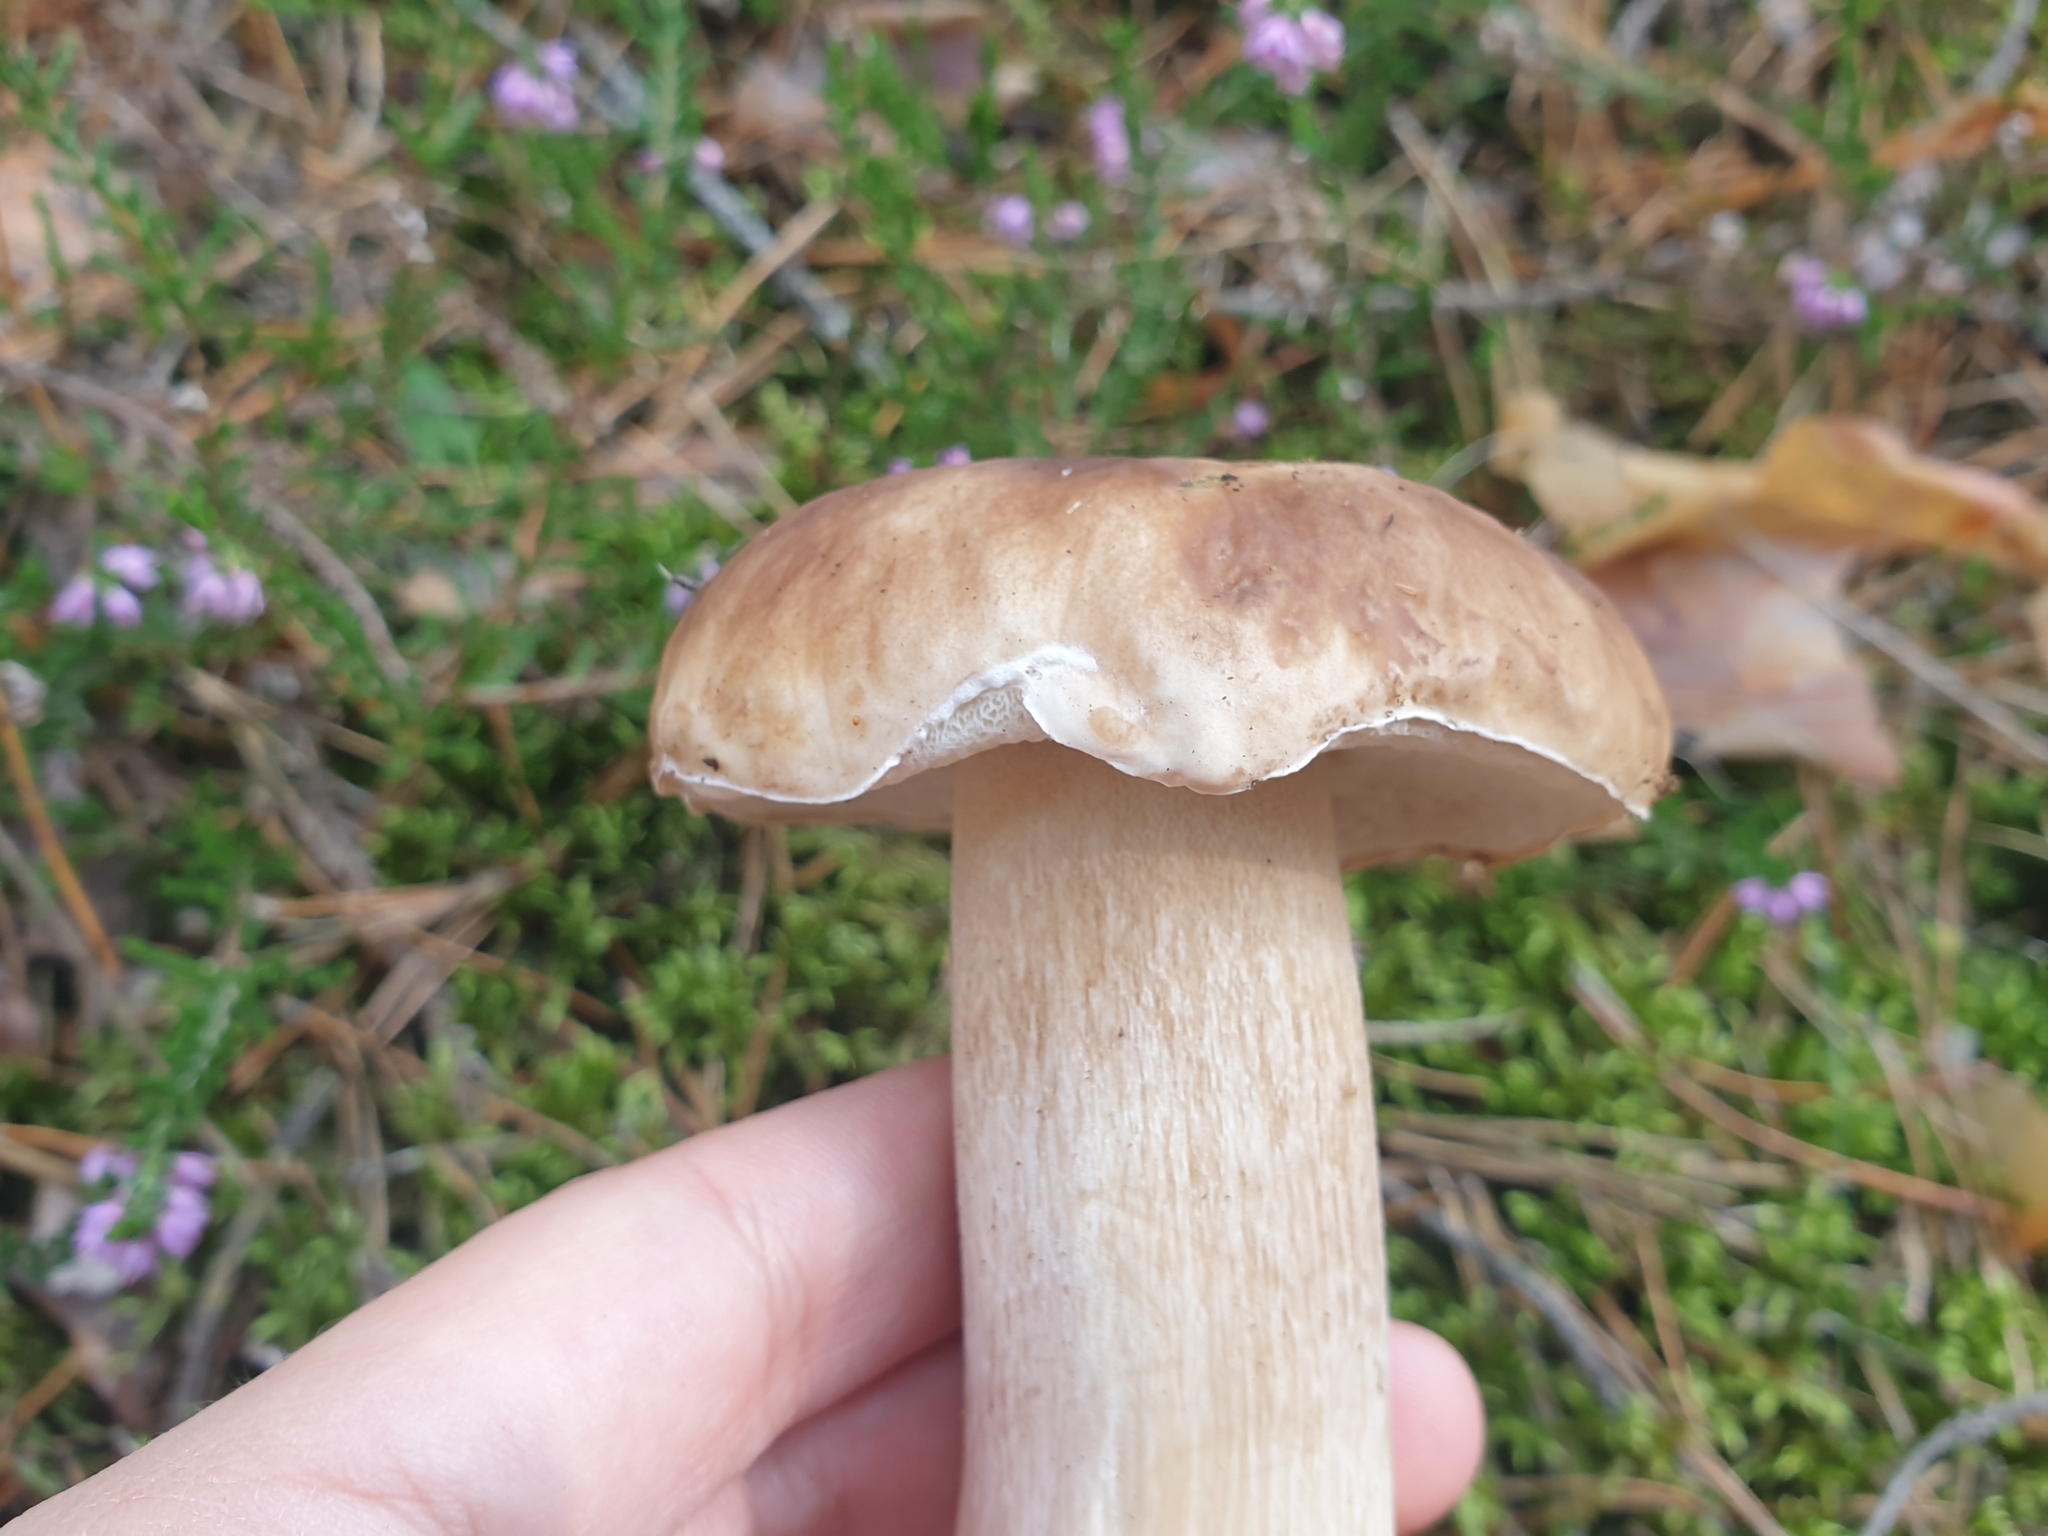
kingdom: Fungi
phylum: Basidiomycota
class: Agaricomycetes
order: Boletales
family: Boletaceae
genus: Boletus
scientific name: Boletus edulis
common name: Cep
